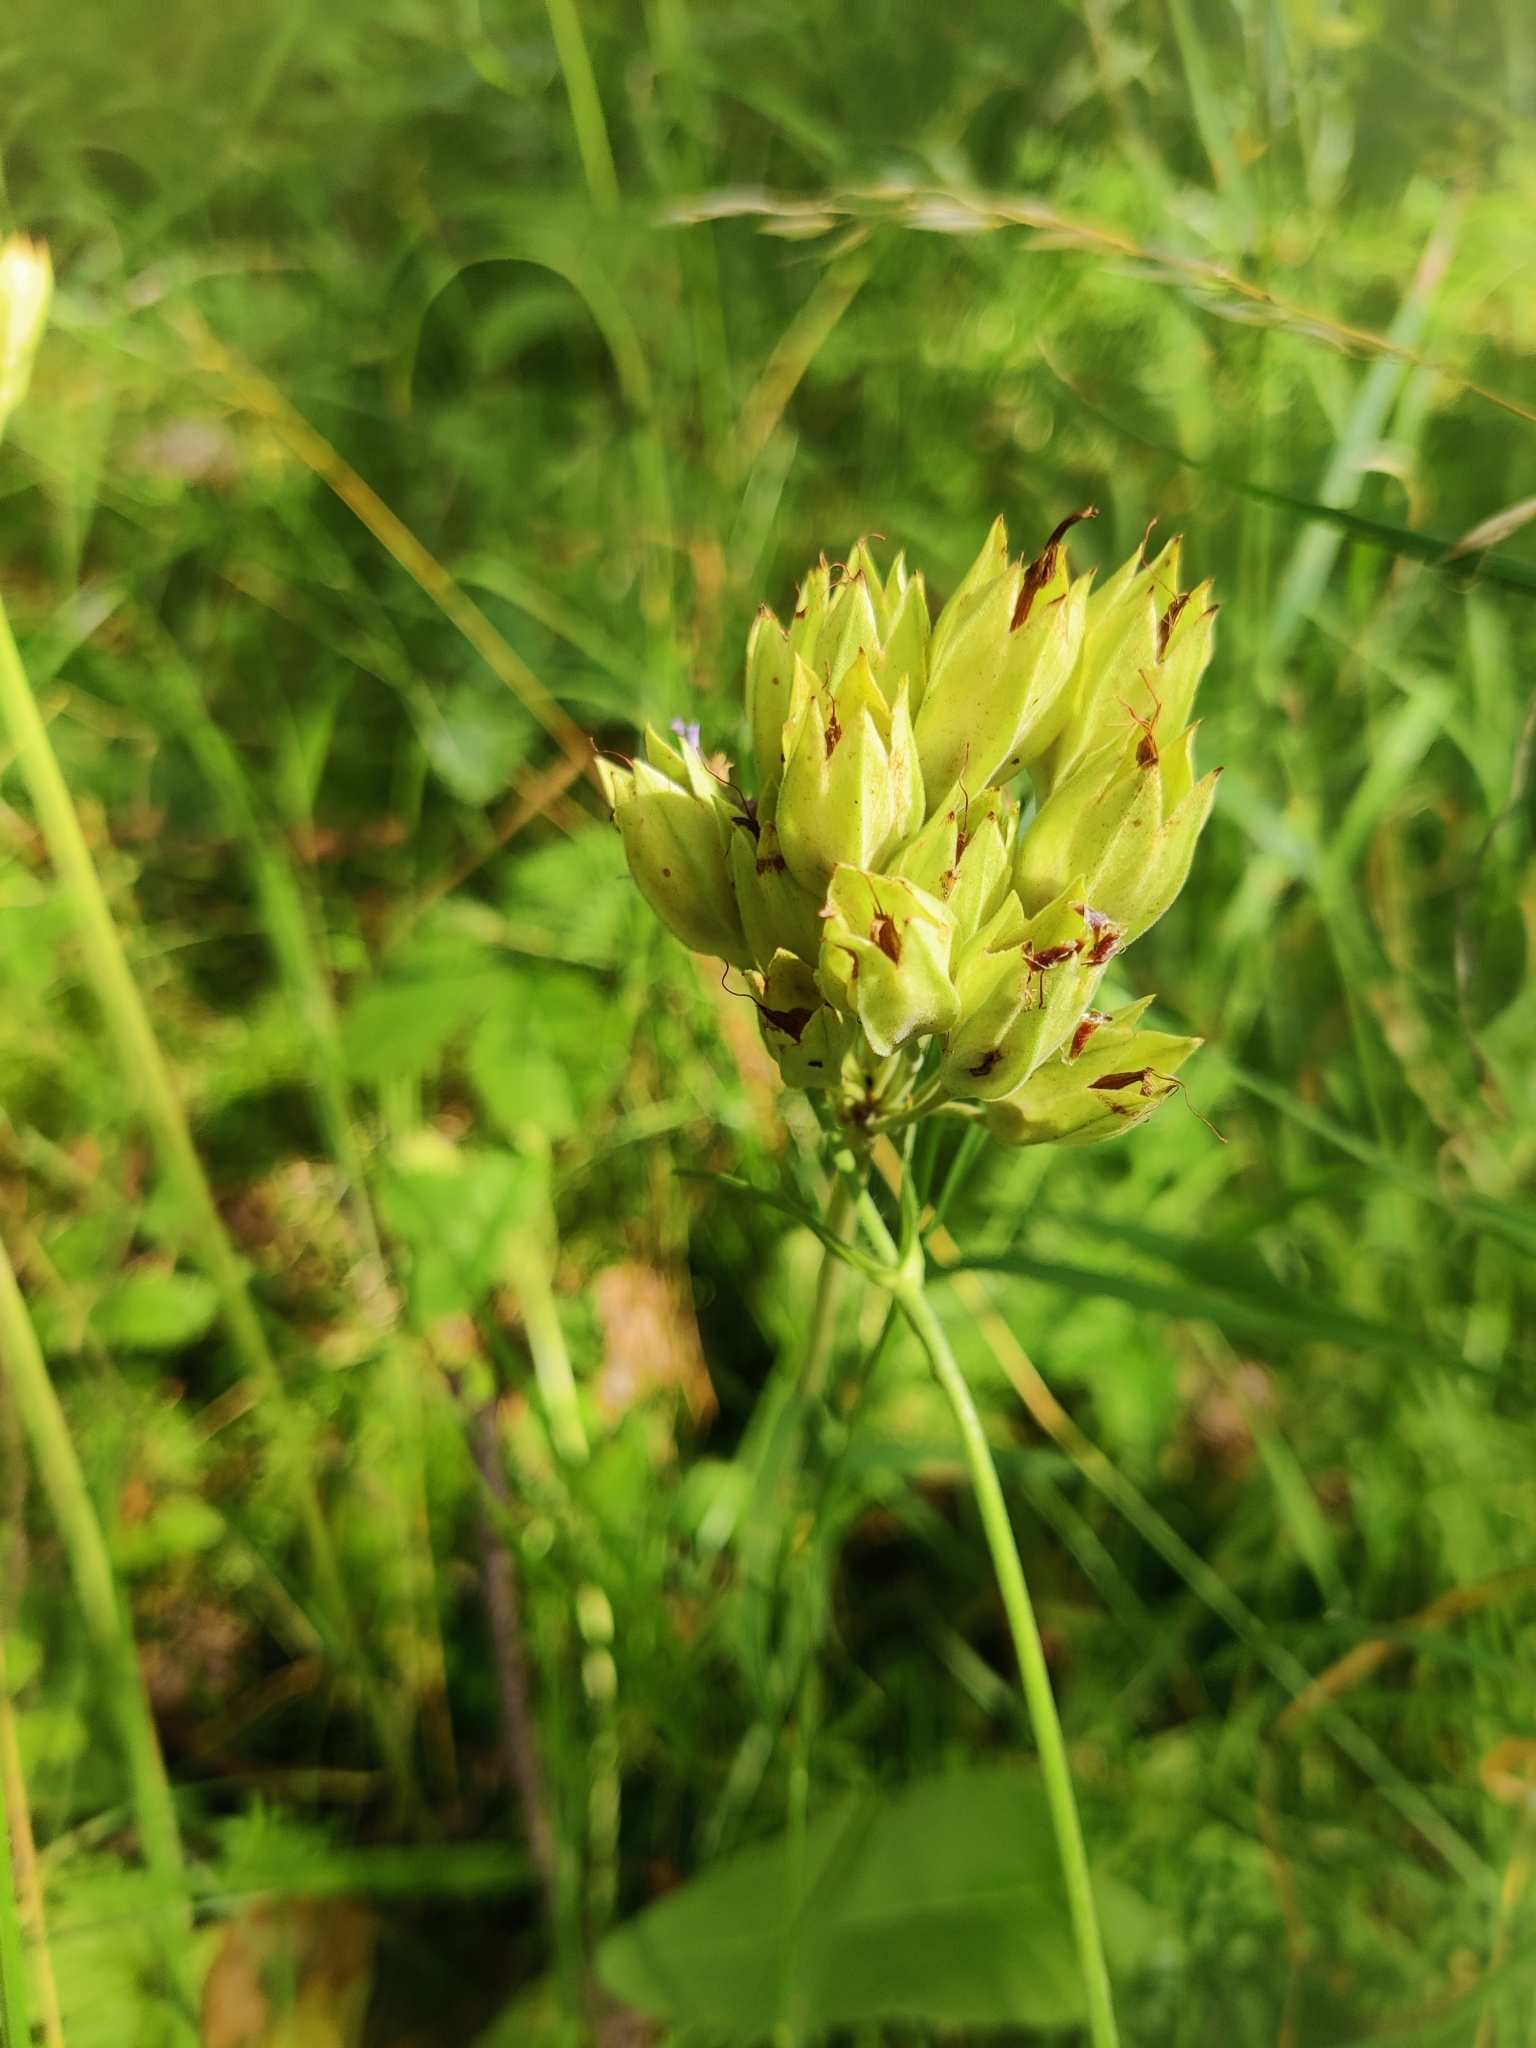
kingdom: Plantae
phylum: Tracheophyta
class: Magnoliopsida
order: Ericales
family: Primulaceae
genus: Primula
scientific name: Primula veris
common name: Cowslip
